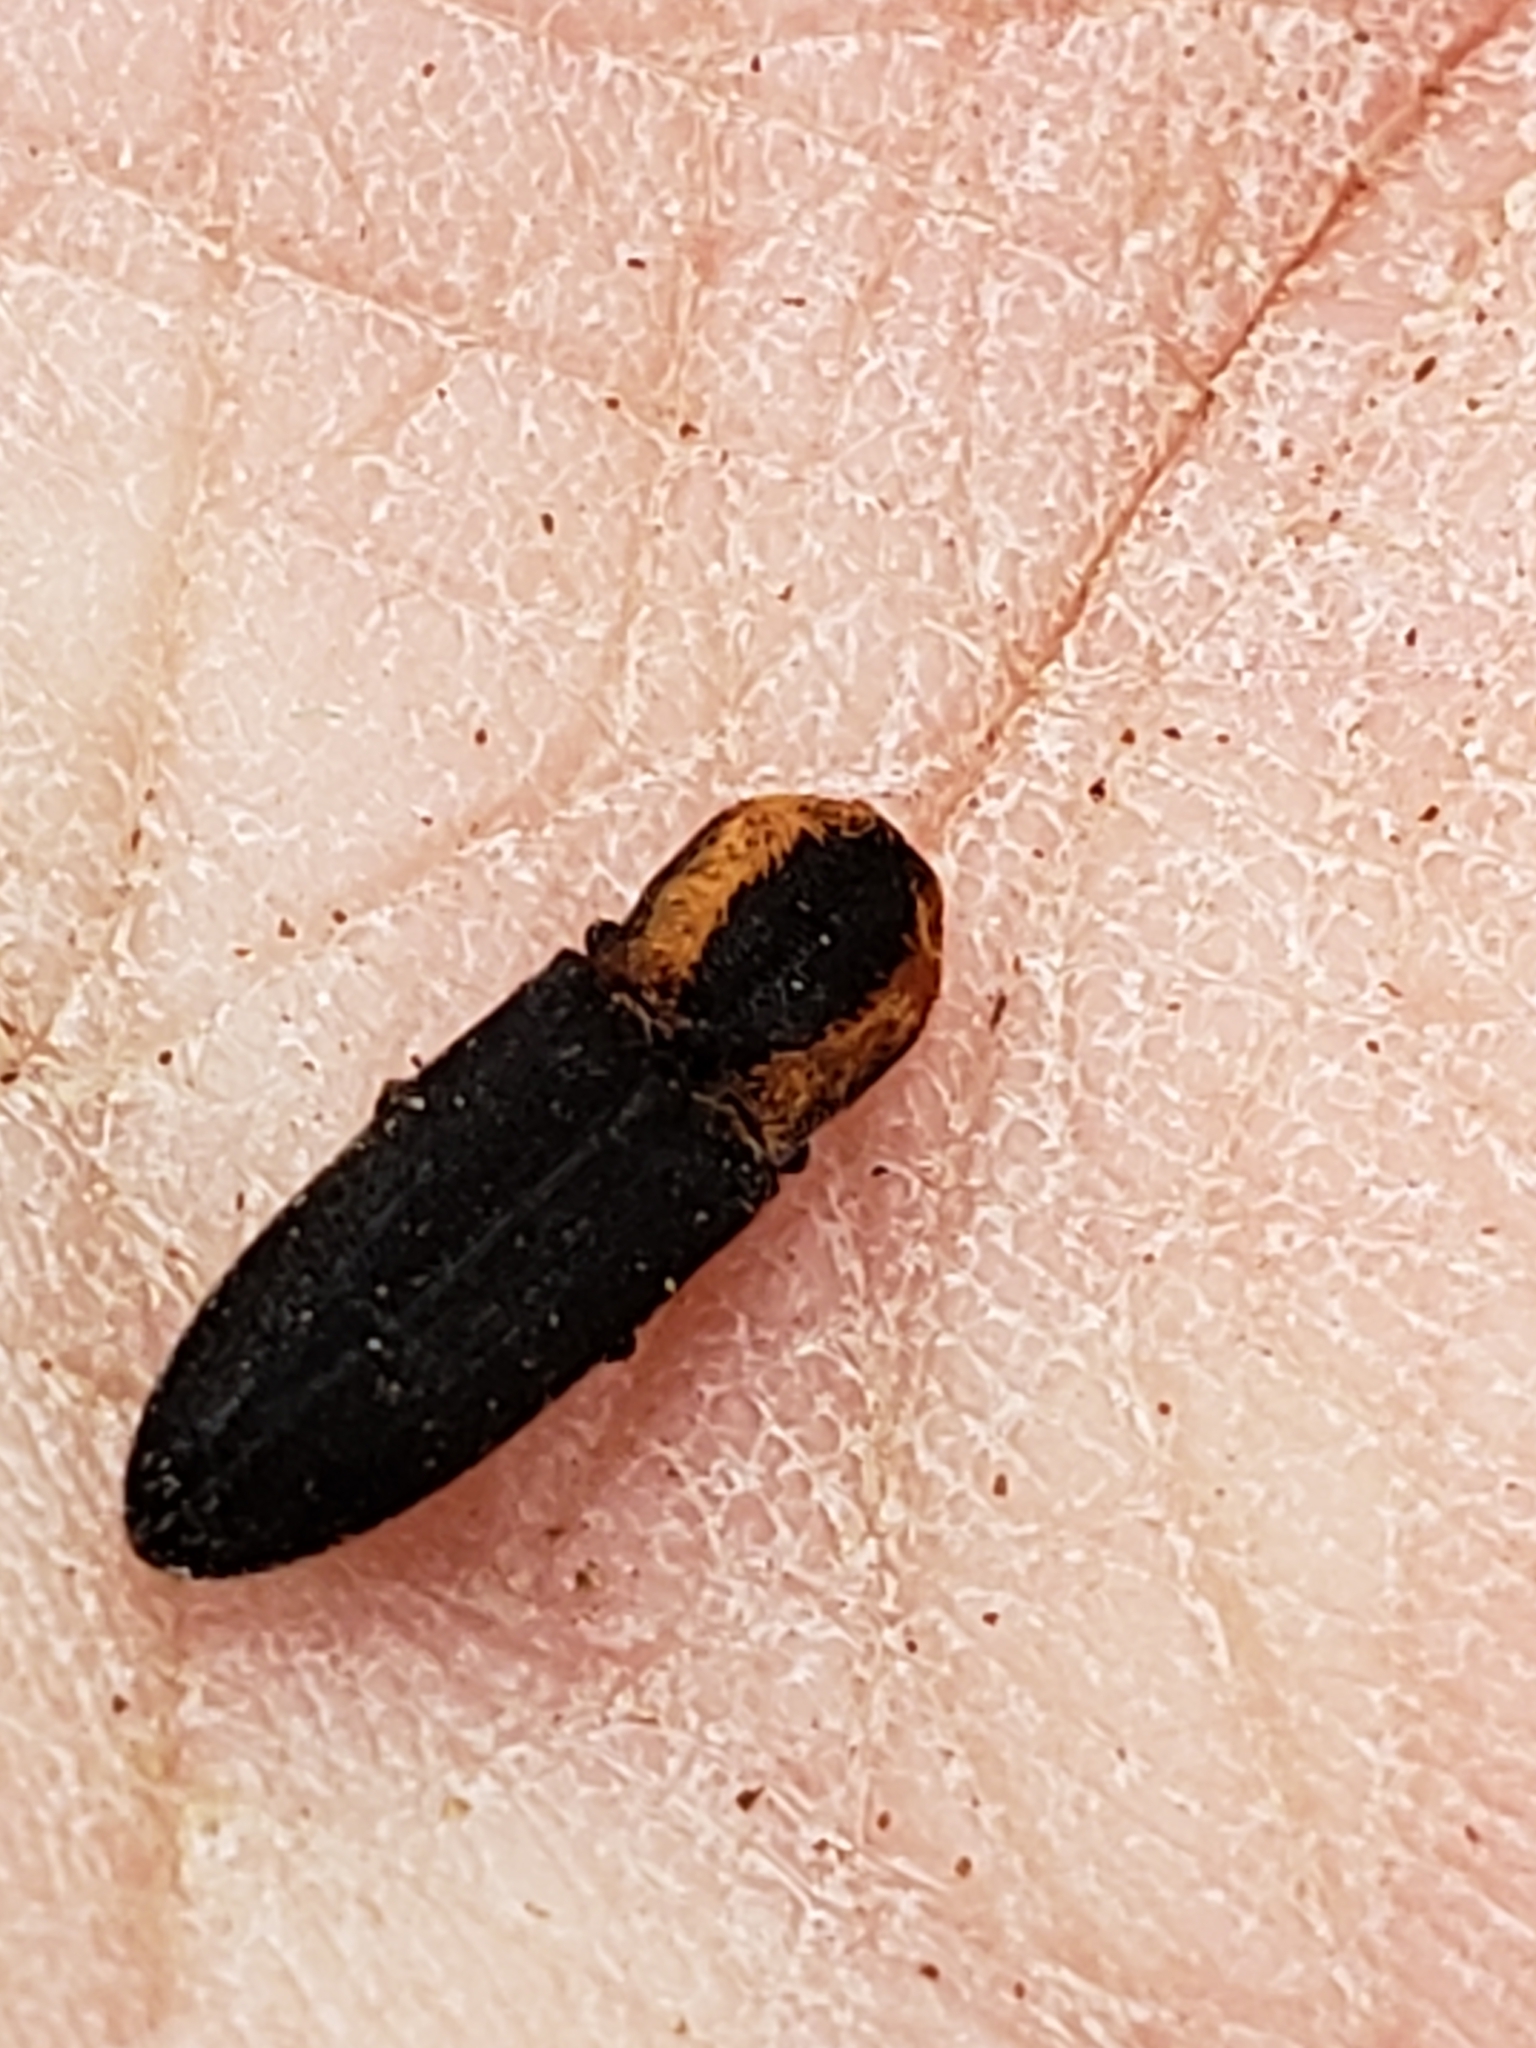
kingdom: Animalia
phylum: Arthropoda
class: Insecta
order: Coleoptera
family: Elateridae
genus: Lacon
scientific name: Lacon discoideus
